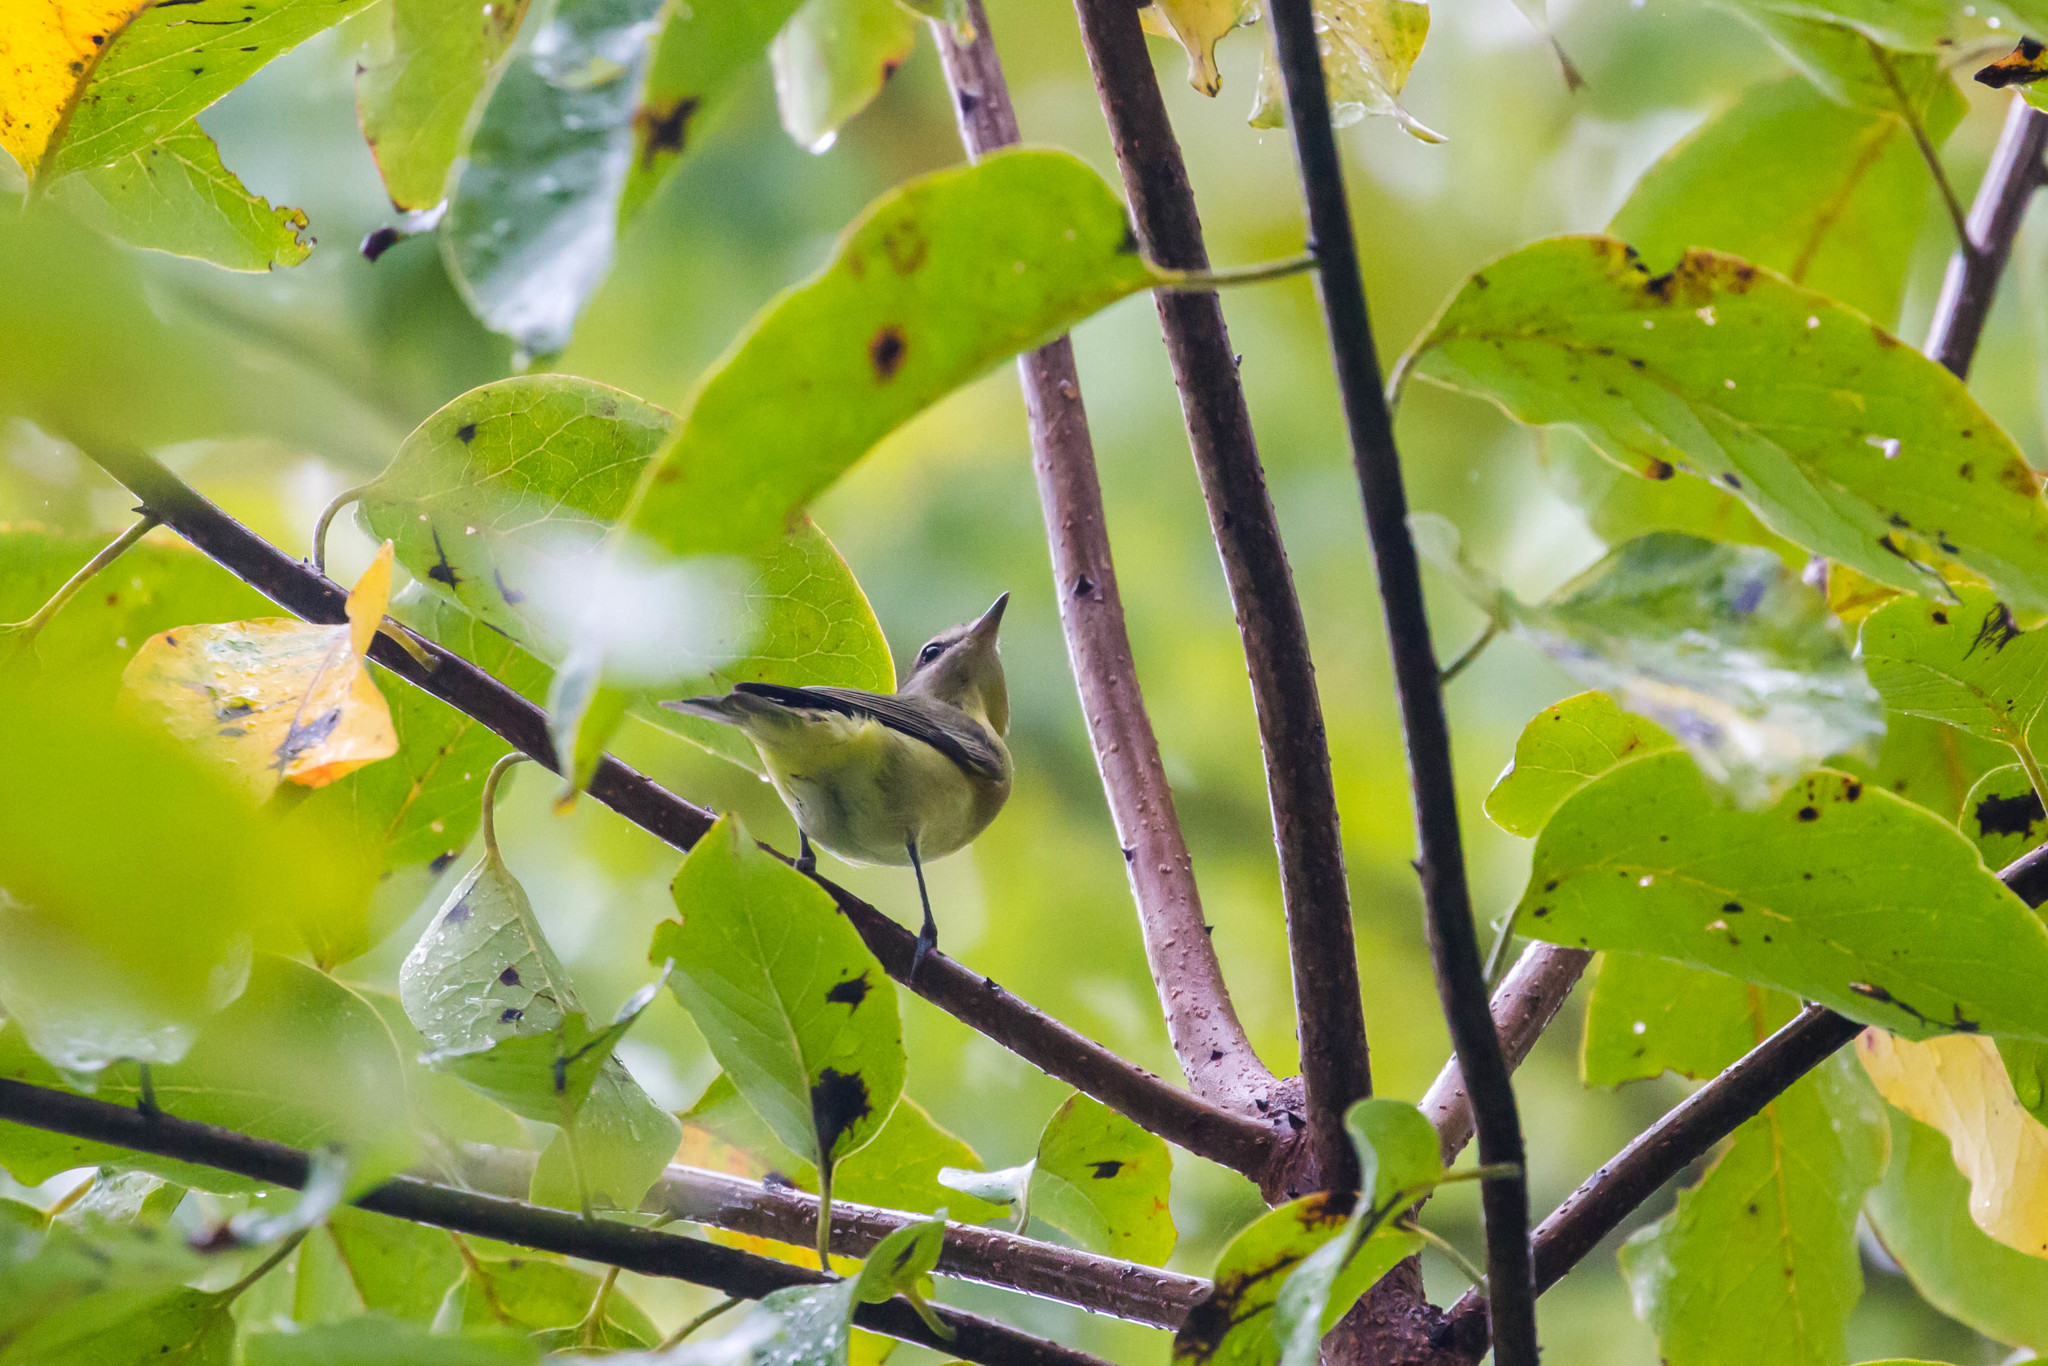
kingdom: Animalia
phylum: Chordata
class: Aves
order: Passeriformes
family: Vireonidae
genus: Vireo
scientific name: Vireo philadelphicus
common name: Philadelphia vireo
